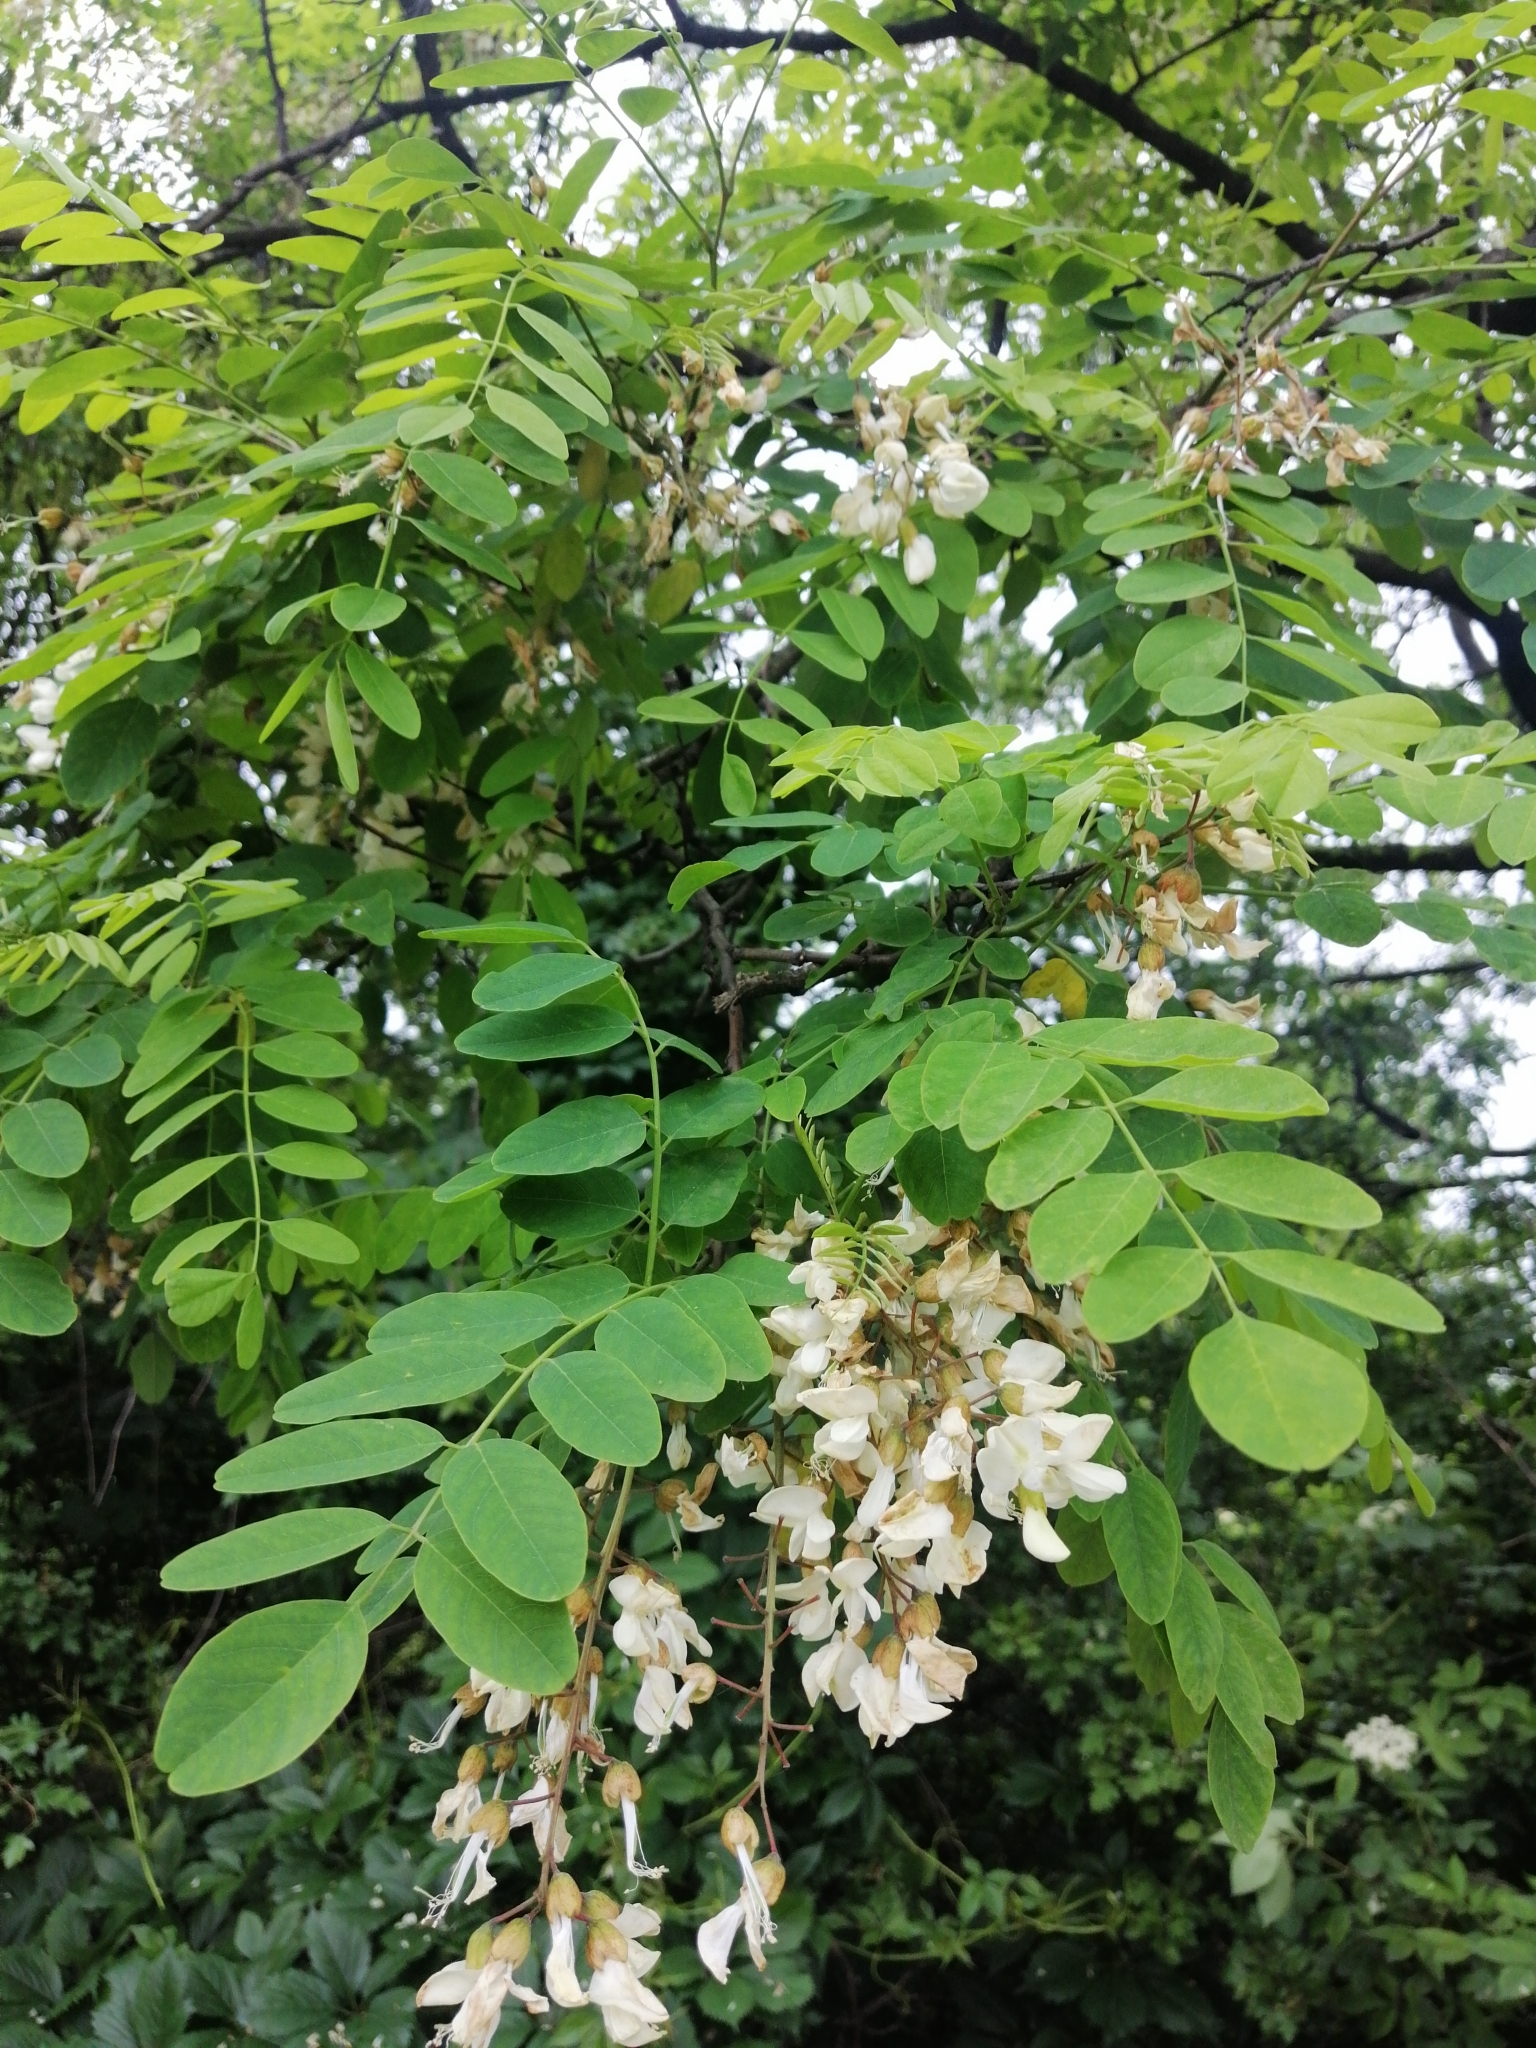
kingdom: Plantae
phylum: Tracheophyta
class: Magnoliopsida
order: Fabales
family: Fabaceae
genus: Robinia
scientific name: Robinia pseudoacacia
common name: Black locust
